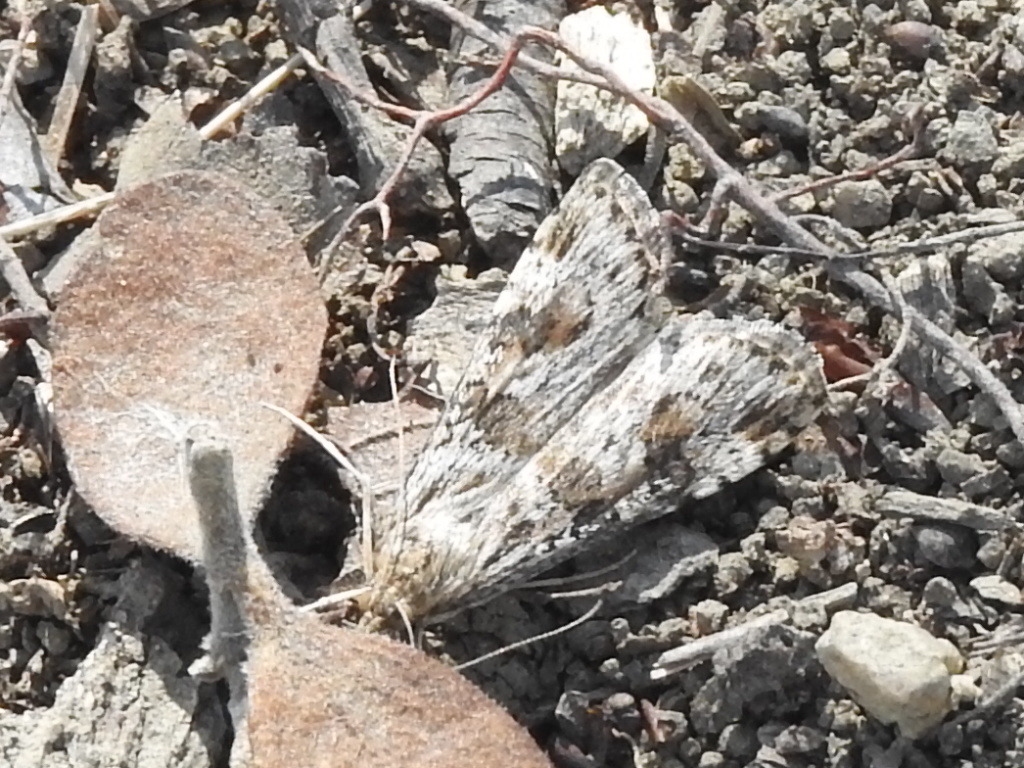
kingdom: Animalia
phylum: Arthropoda
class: Insecta
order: Lepidoptera
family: Crambidae
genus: Nomophila
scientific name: Nomophila nearctica
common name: American rush veneer
